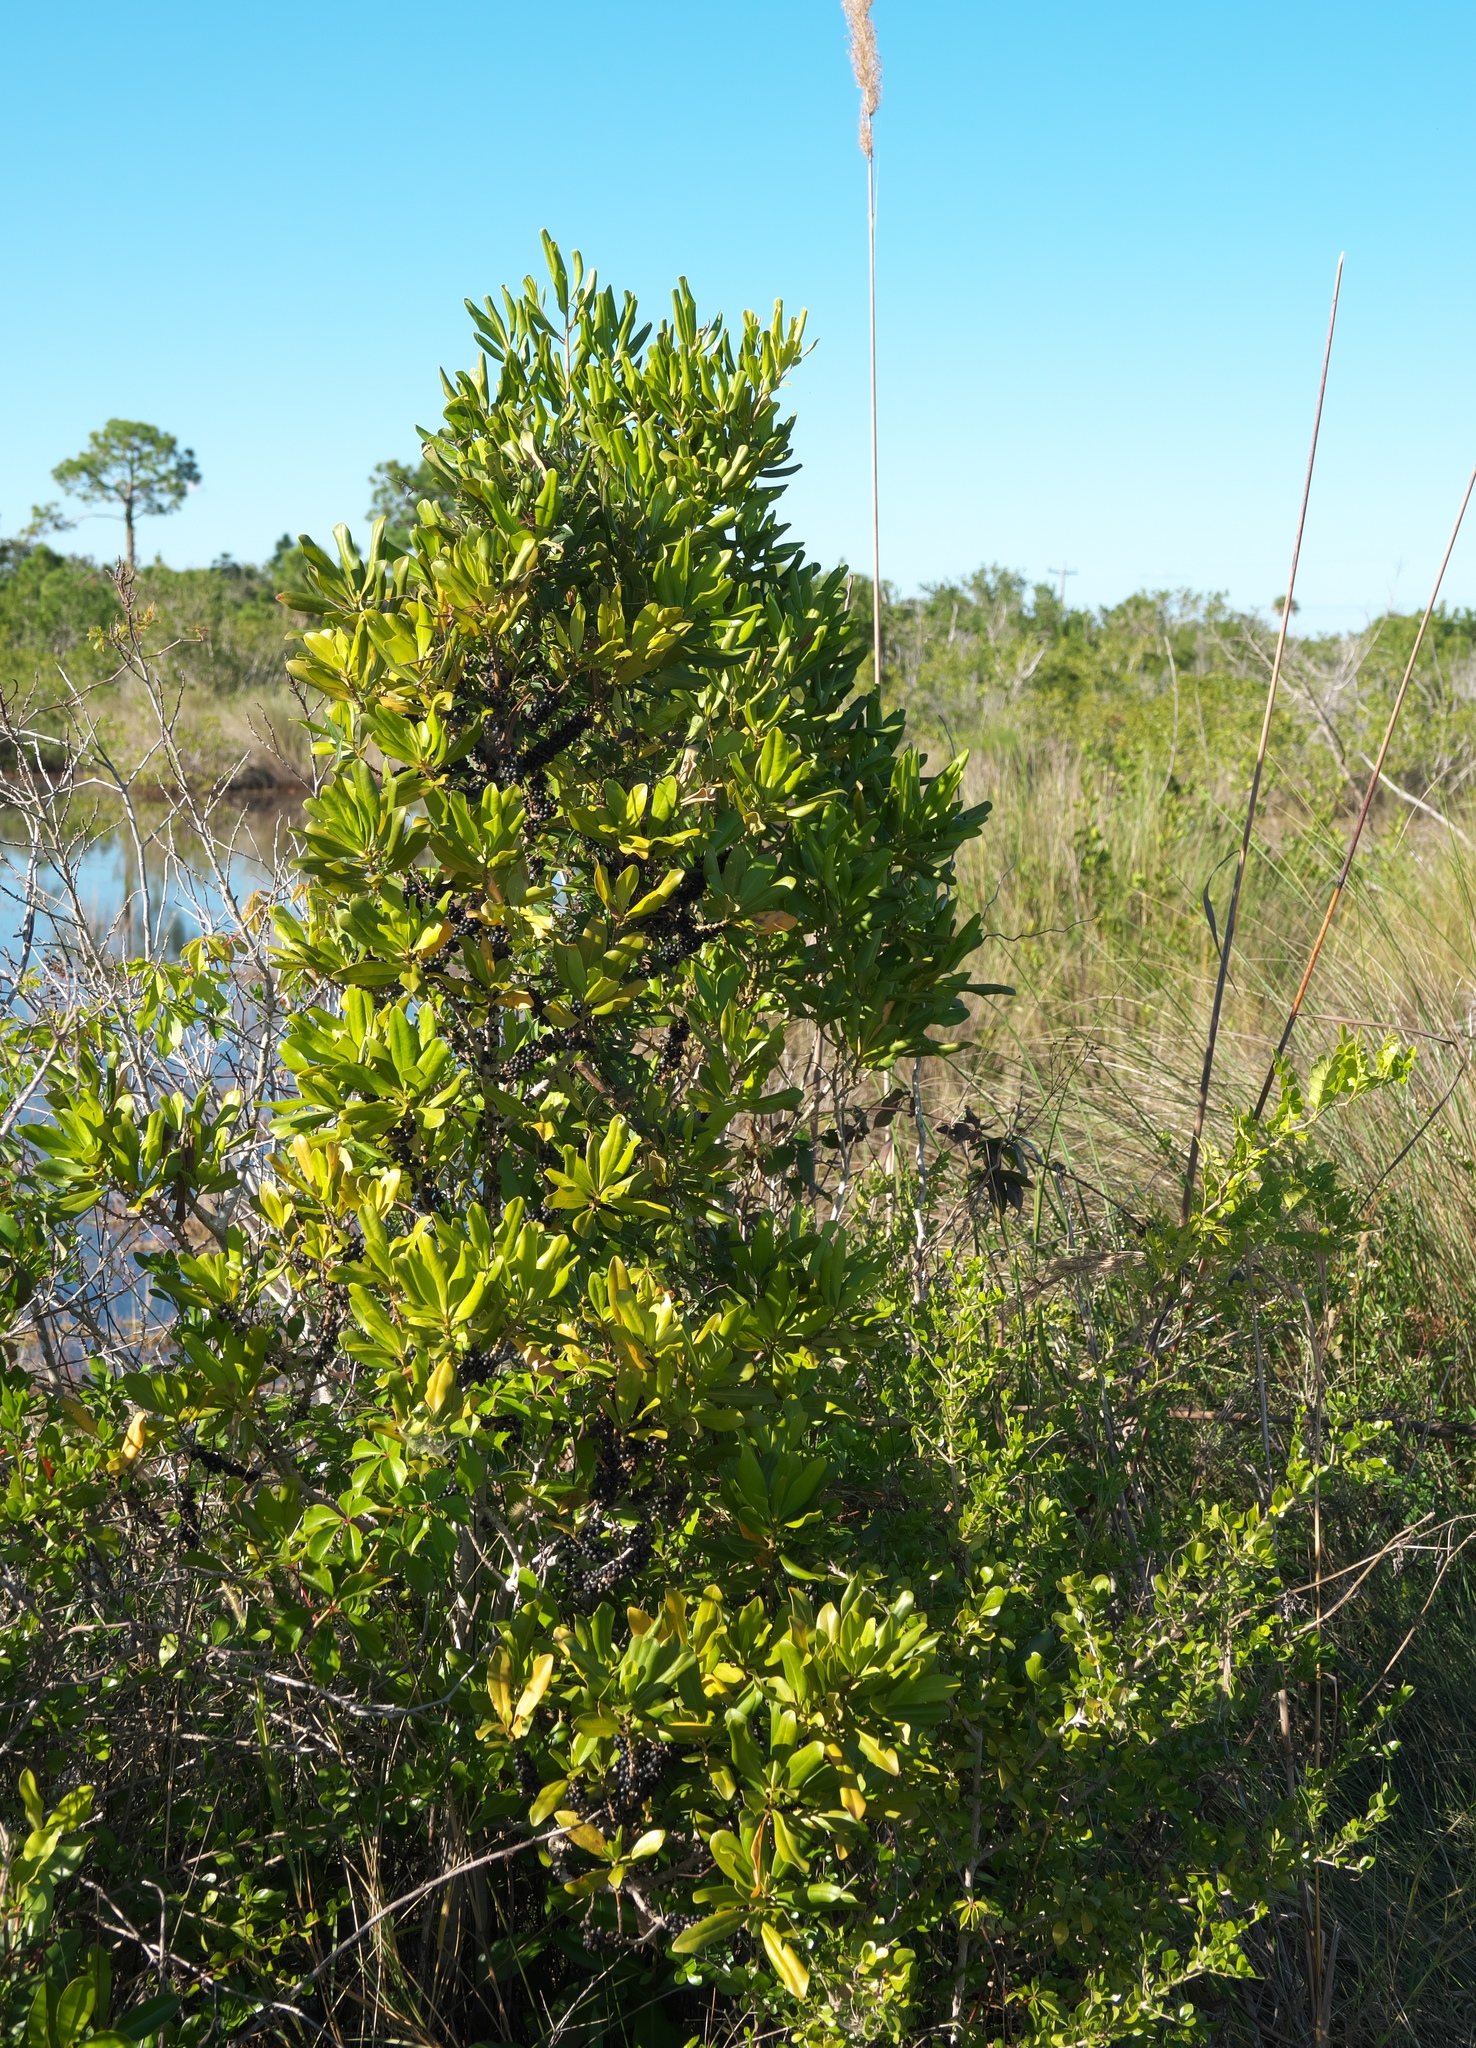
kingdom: Plantae
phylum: Tracheophyta
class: Magnoliopsida
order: Ericales
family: Primulaceae
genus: Myrsine
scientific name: Myrsine floridana
